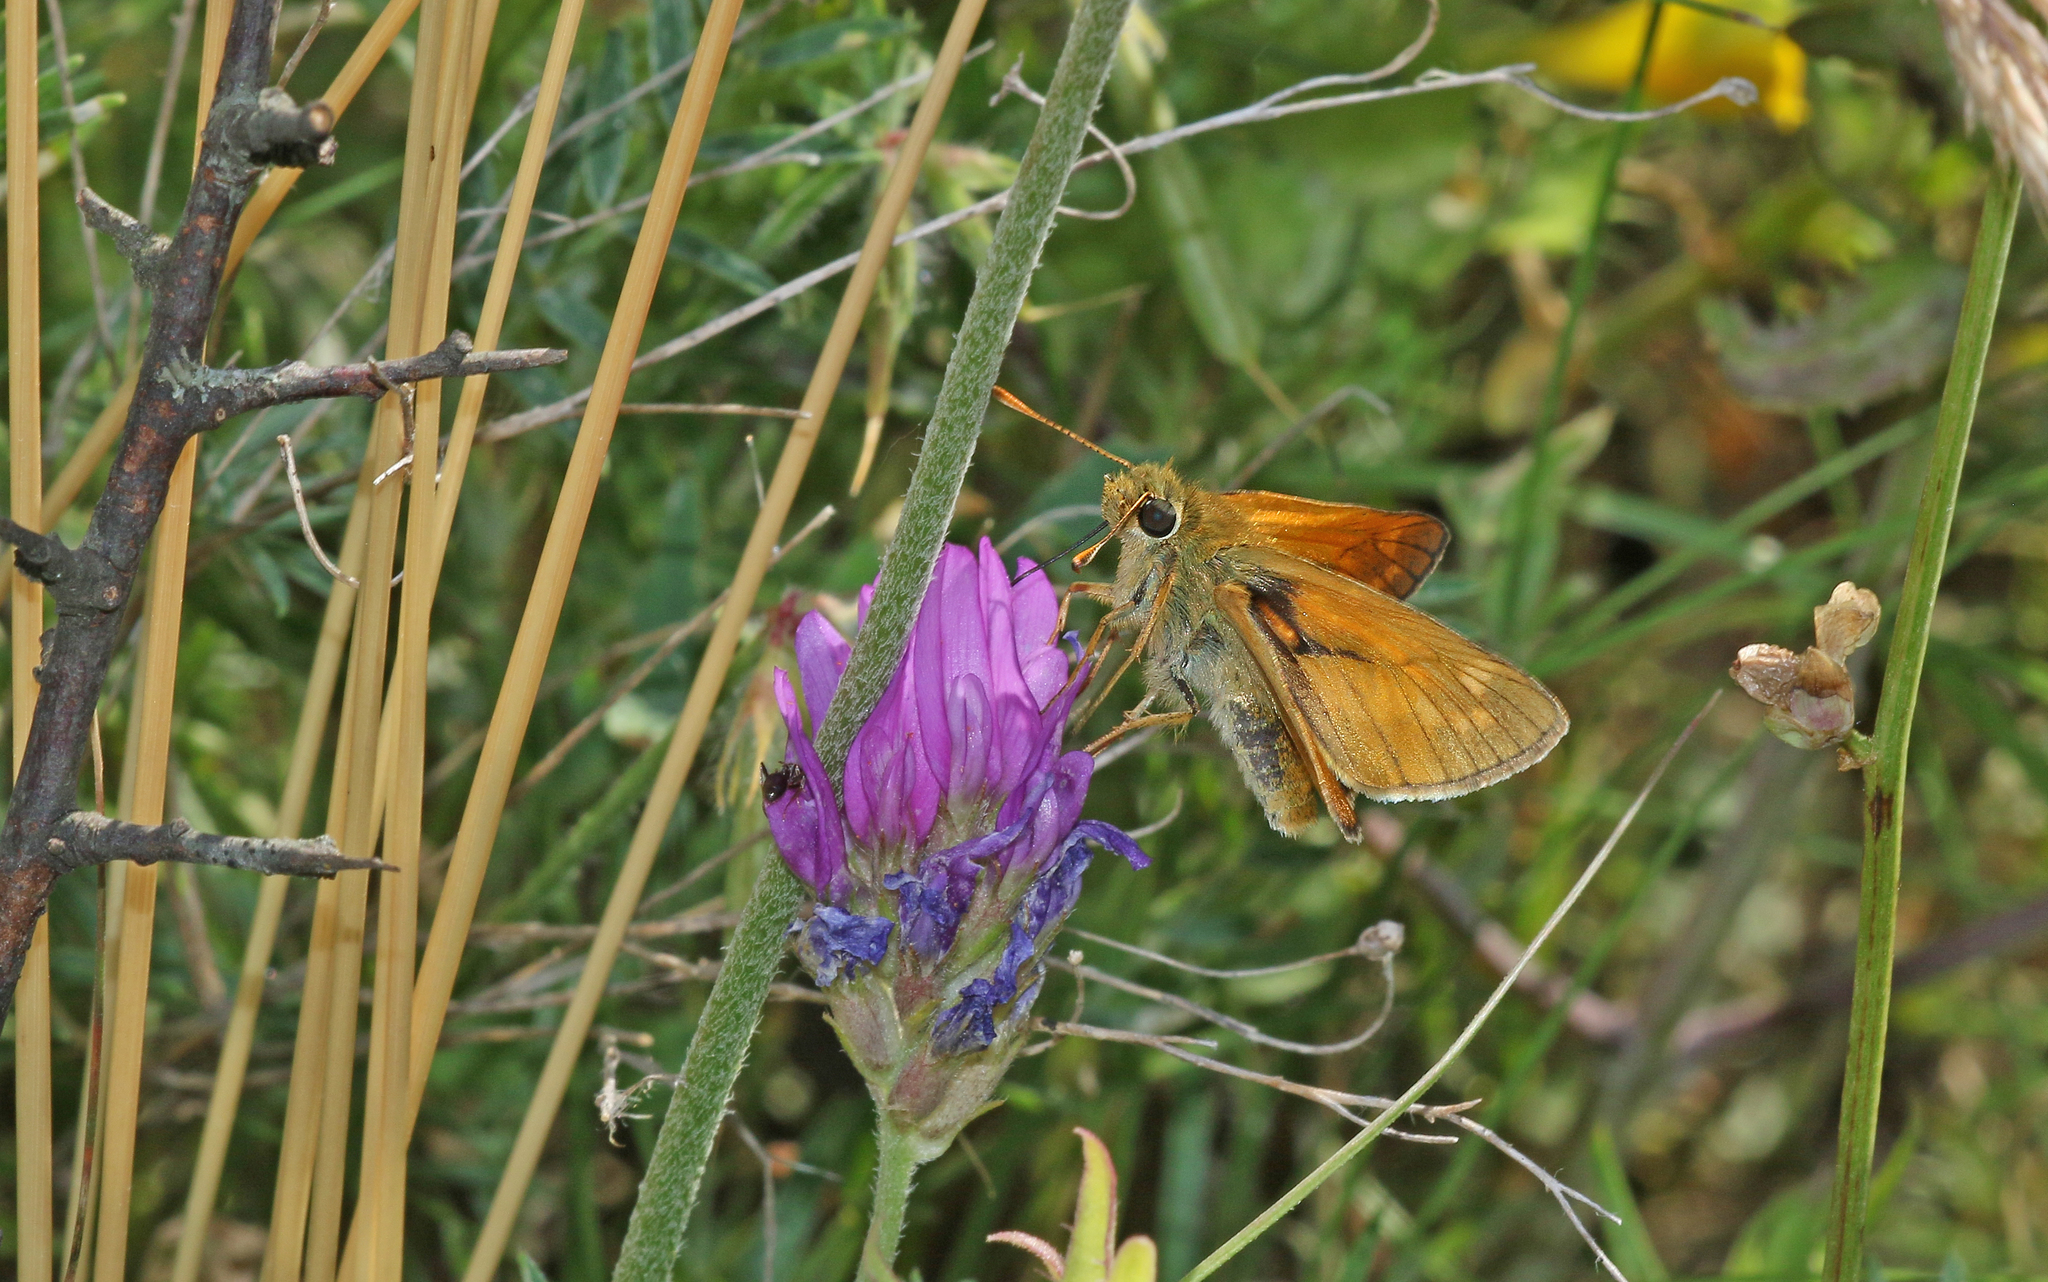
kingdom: Animalia
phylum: Arthropoda
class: Insecta
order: Lepidoptera
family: Hesperiidae
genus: Ochlodes
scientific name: Ochlodes venata
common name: Large skipper
